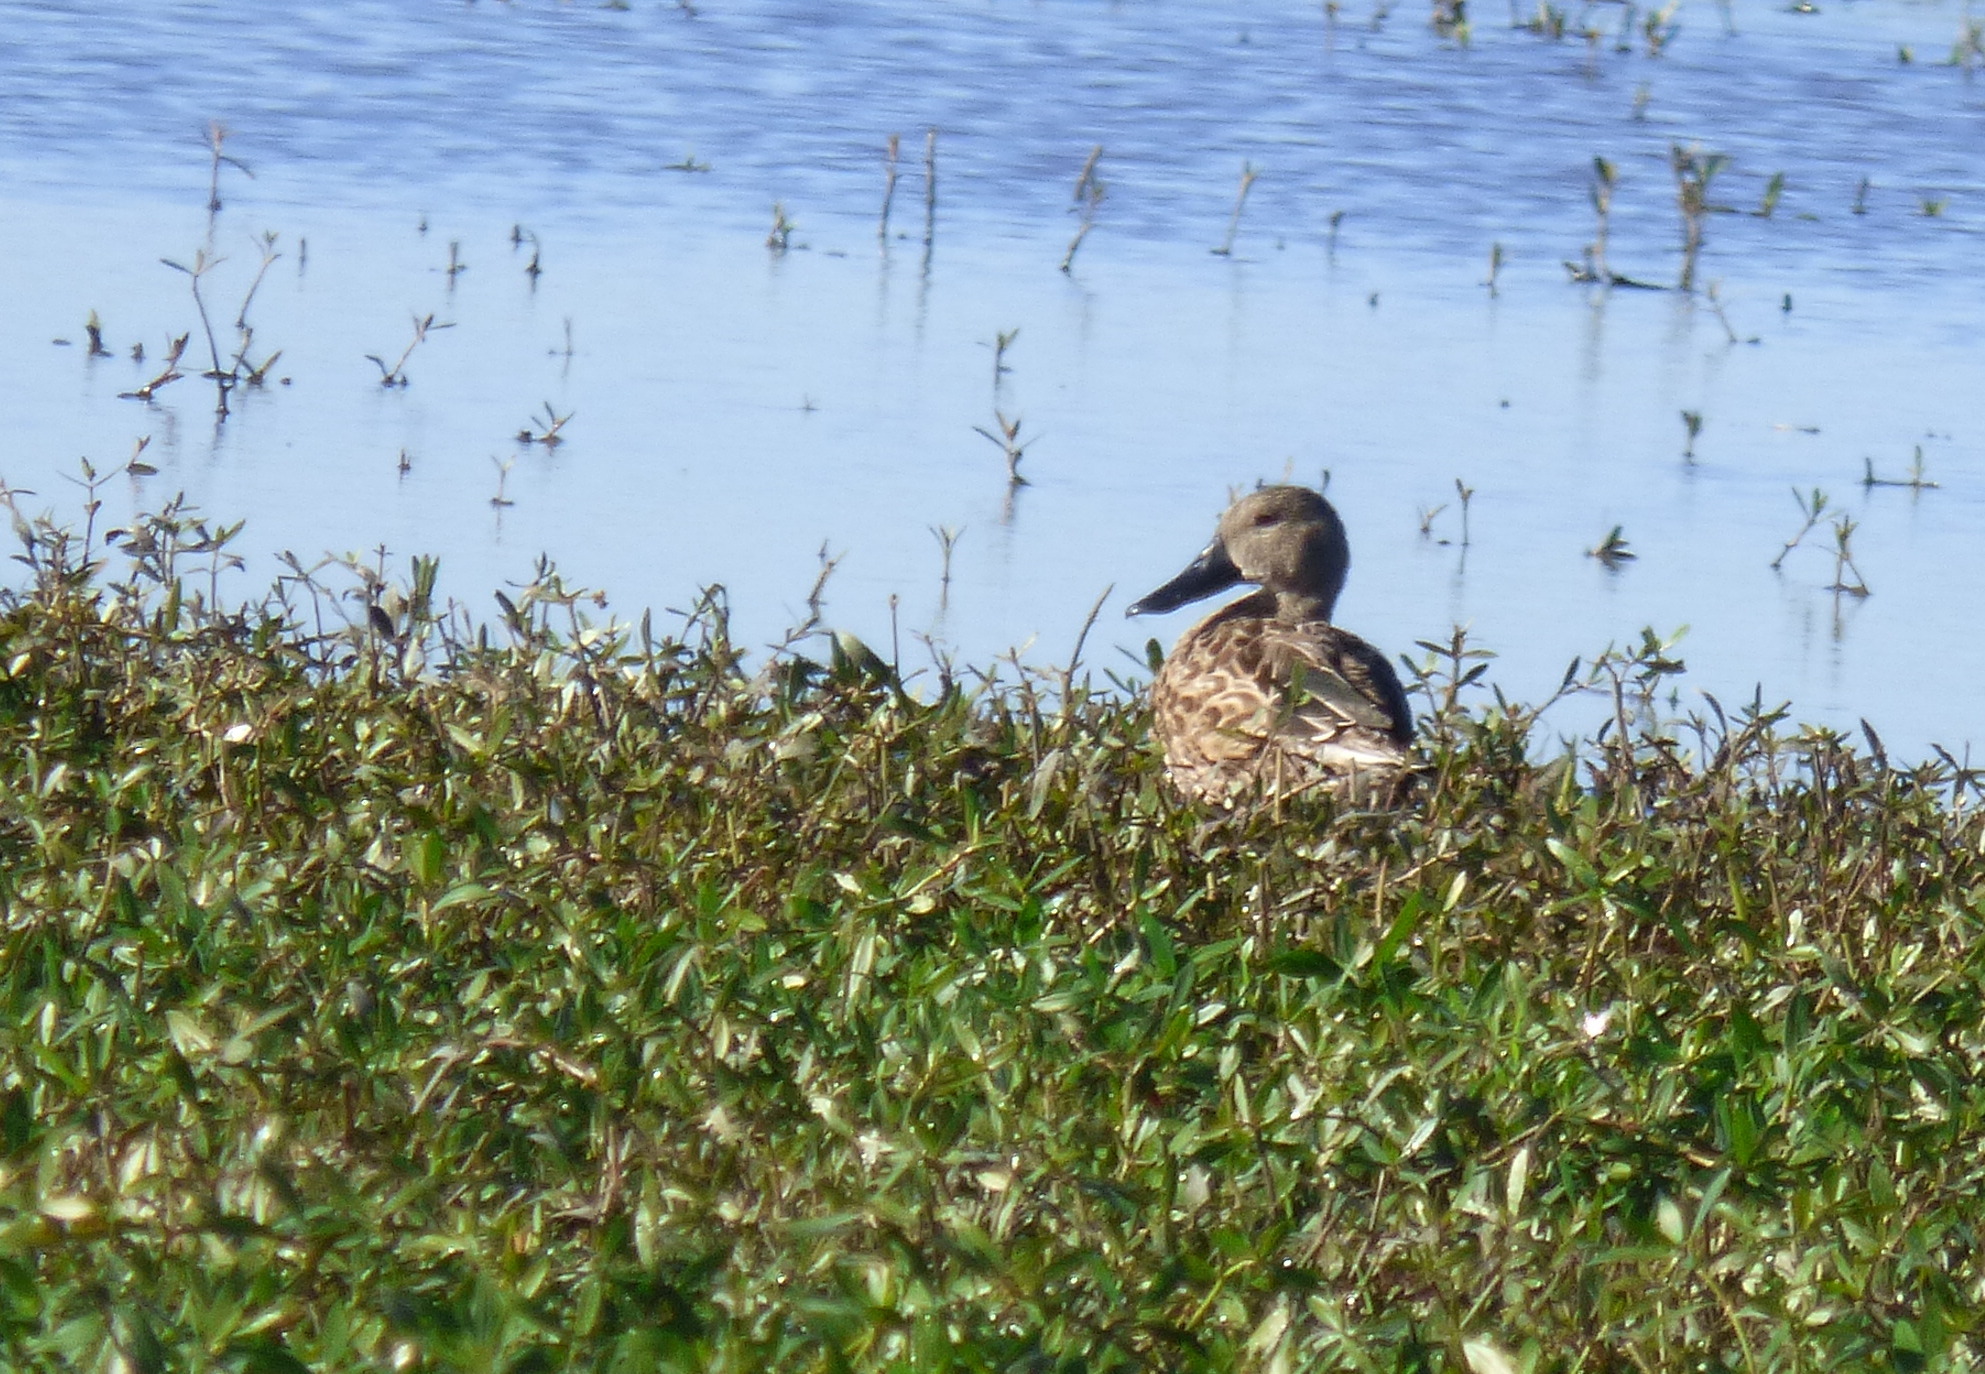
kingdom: Animalia
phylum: Chordata
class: Aves
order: Anseriformes
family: Anatidae
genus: Spatula
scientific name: Spatula platalea
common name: Red shoveler
